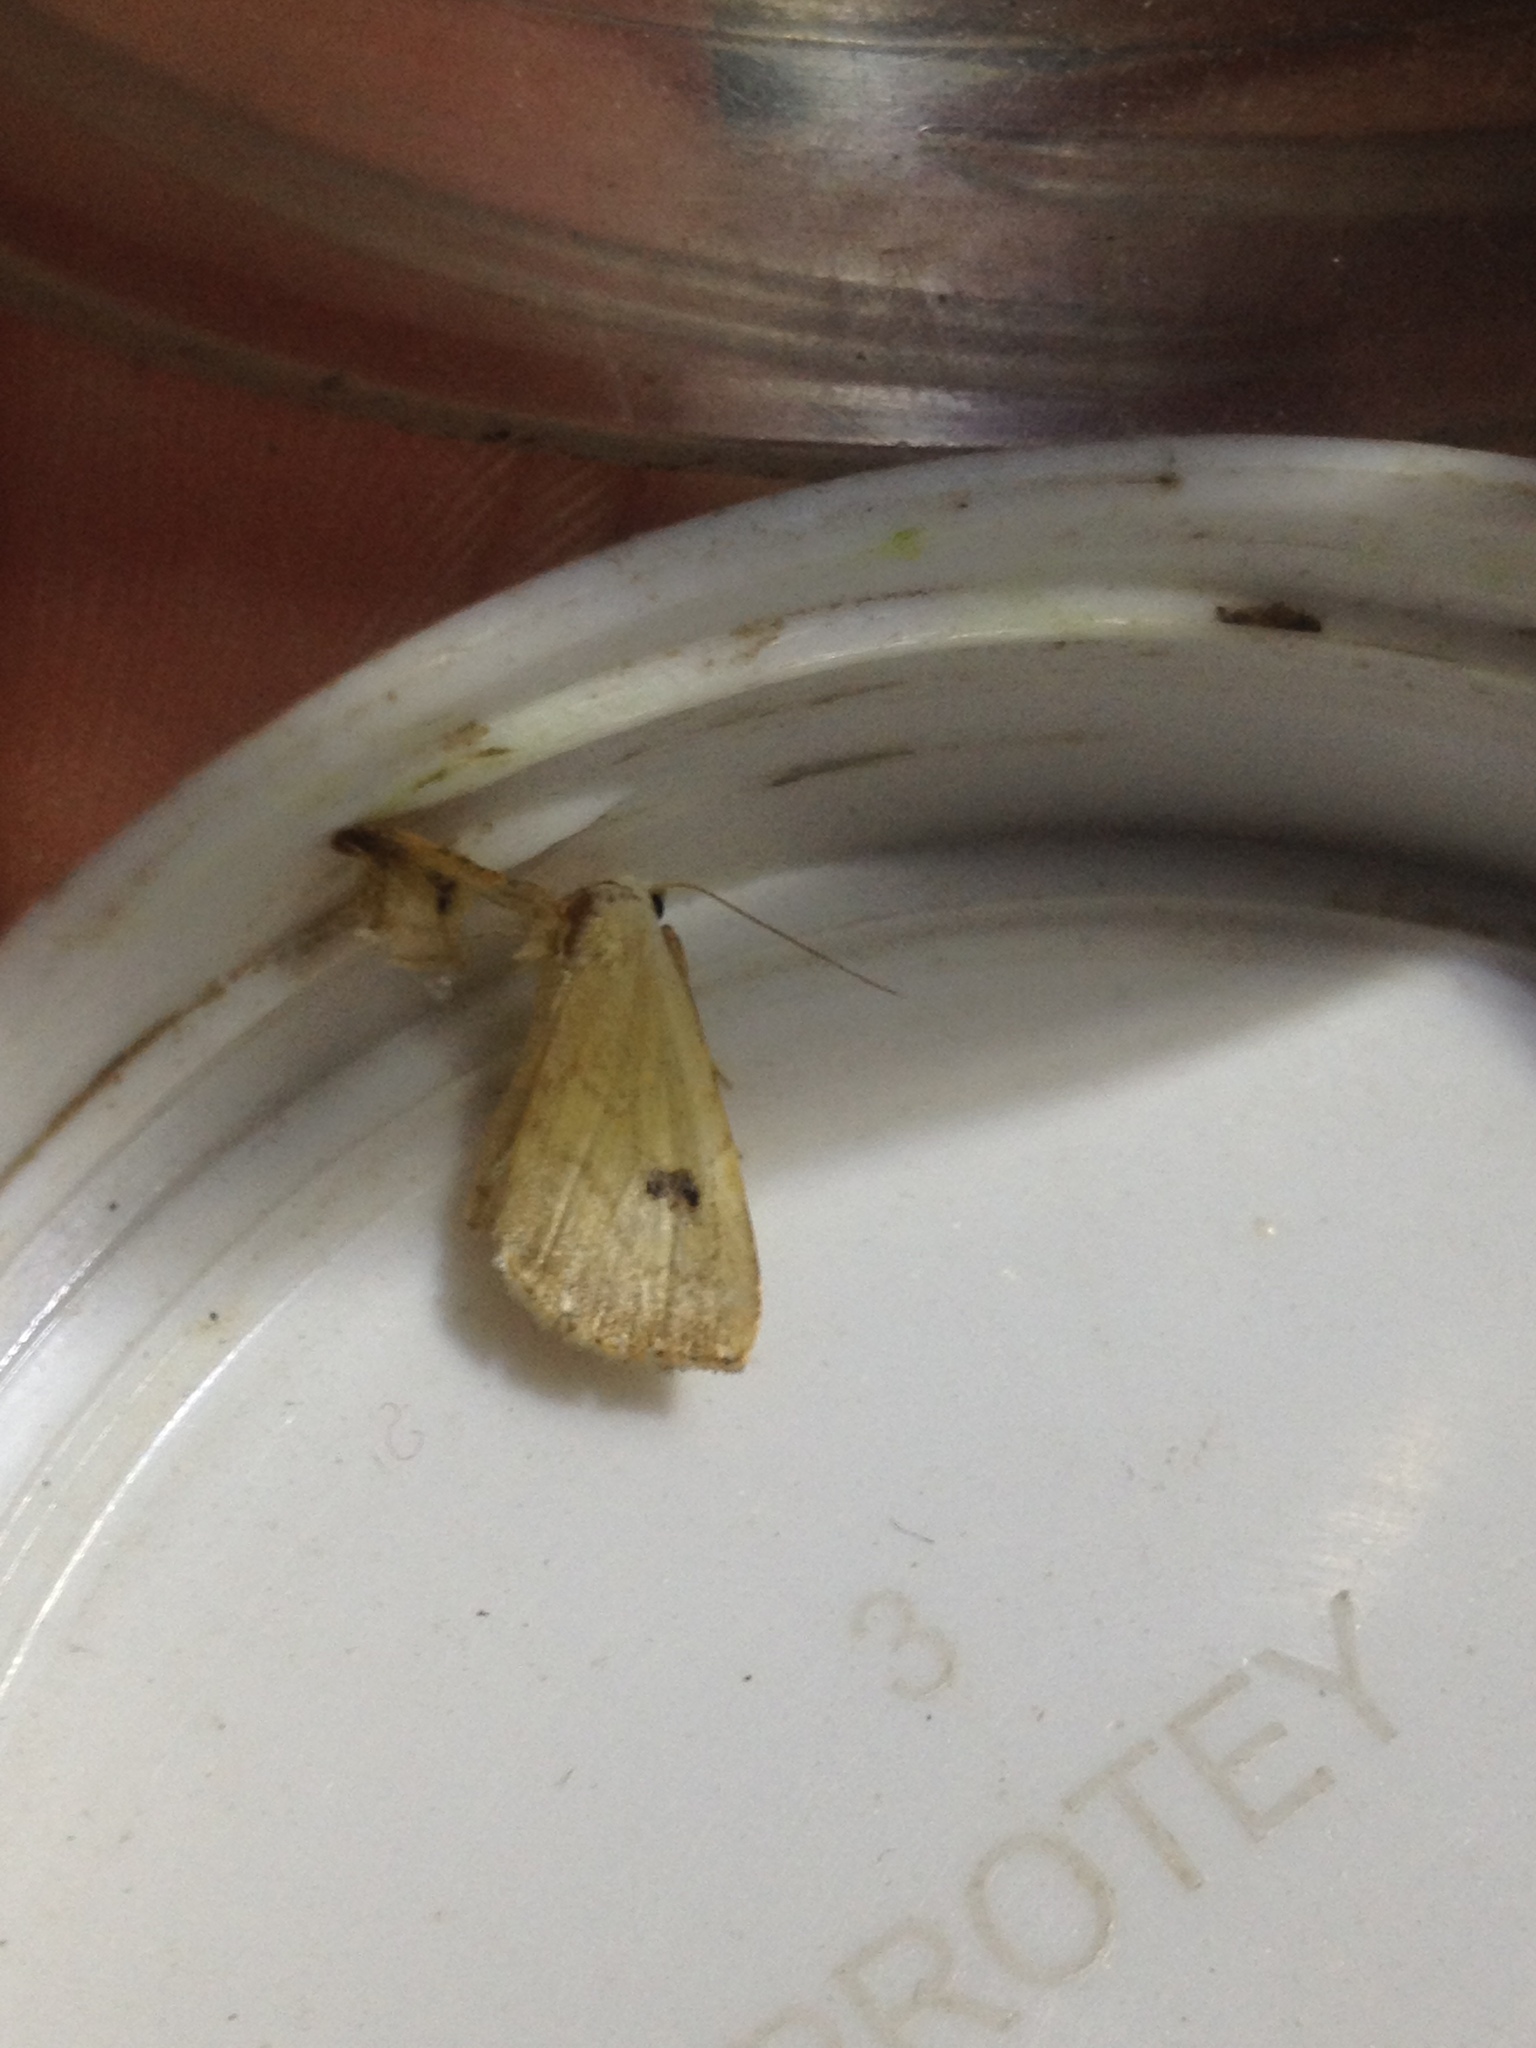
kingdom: Animalia
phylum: Arthropoda
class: Insecta
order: Lepidoptera
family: Erebidae
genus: Rivula
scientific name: Rivula sericealis
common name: Straw dot
